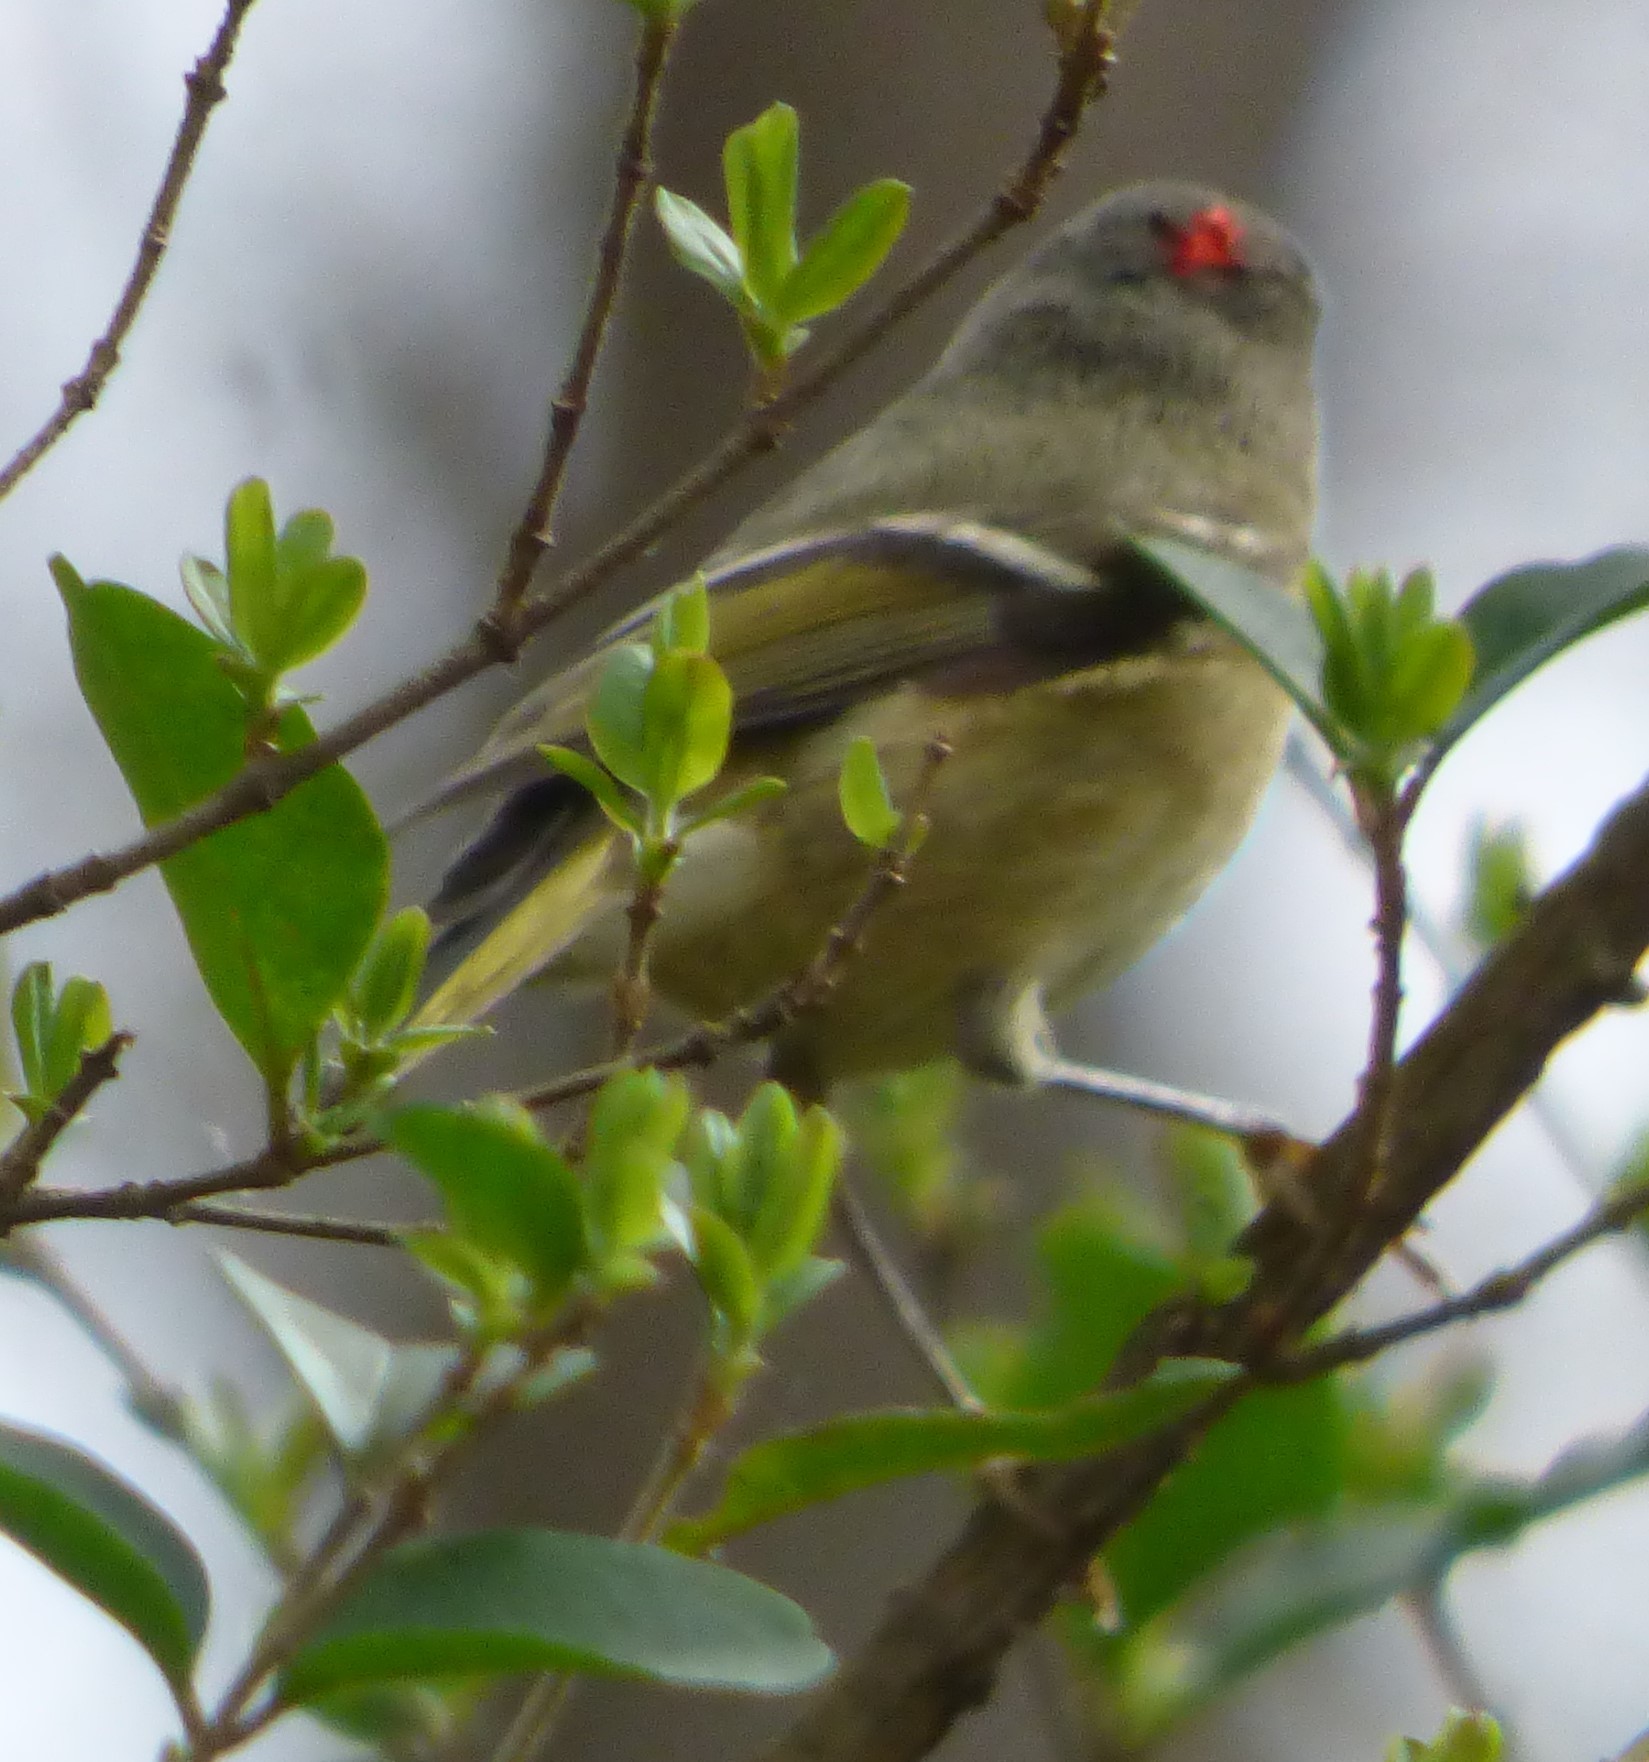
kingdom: Animalia
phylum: Chordata
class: Aves
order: Passeriformes
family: Regulidae
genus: Regulus
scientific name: Regulus calendula
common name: Ruby-crowned kinglet
